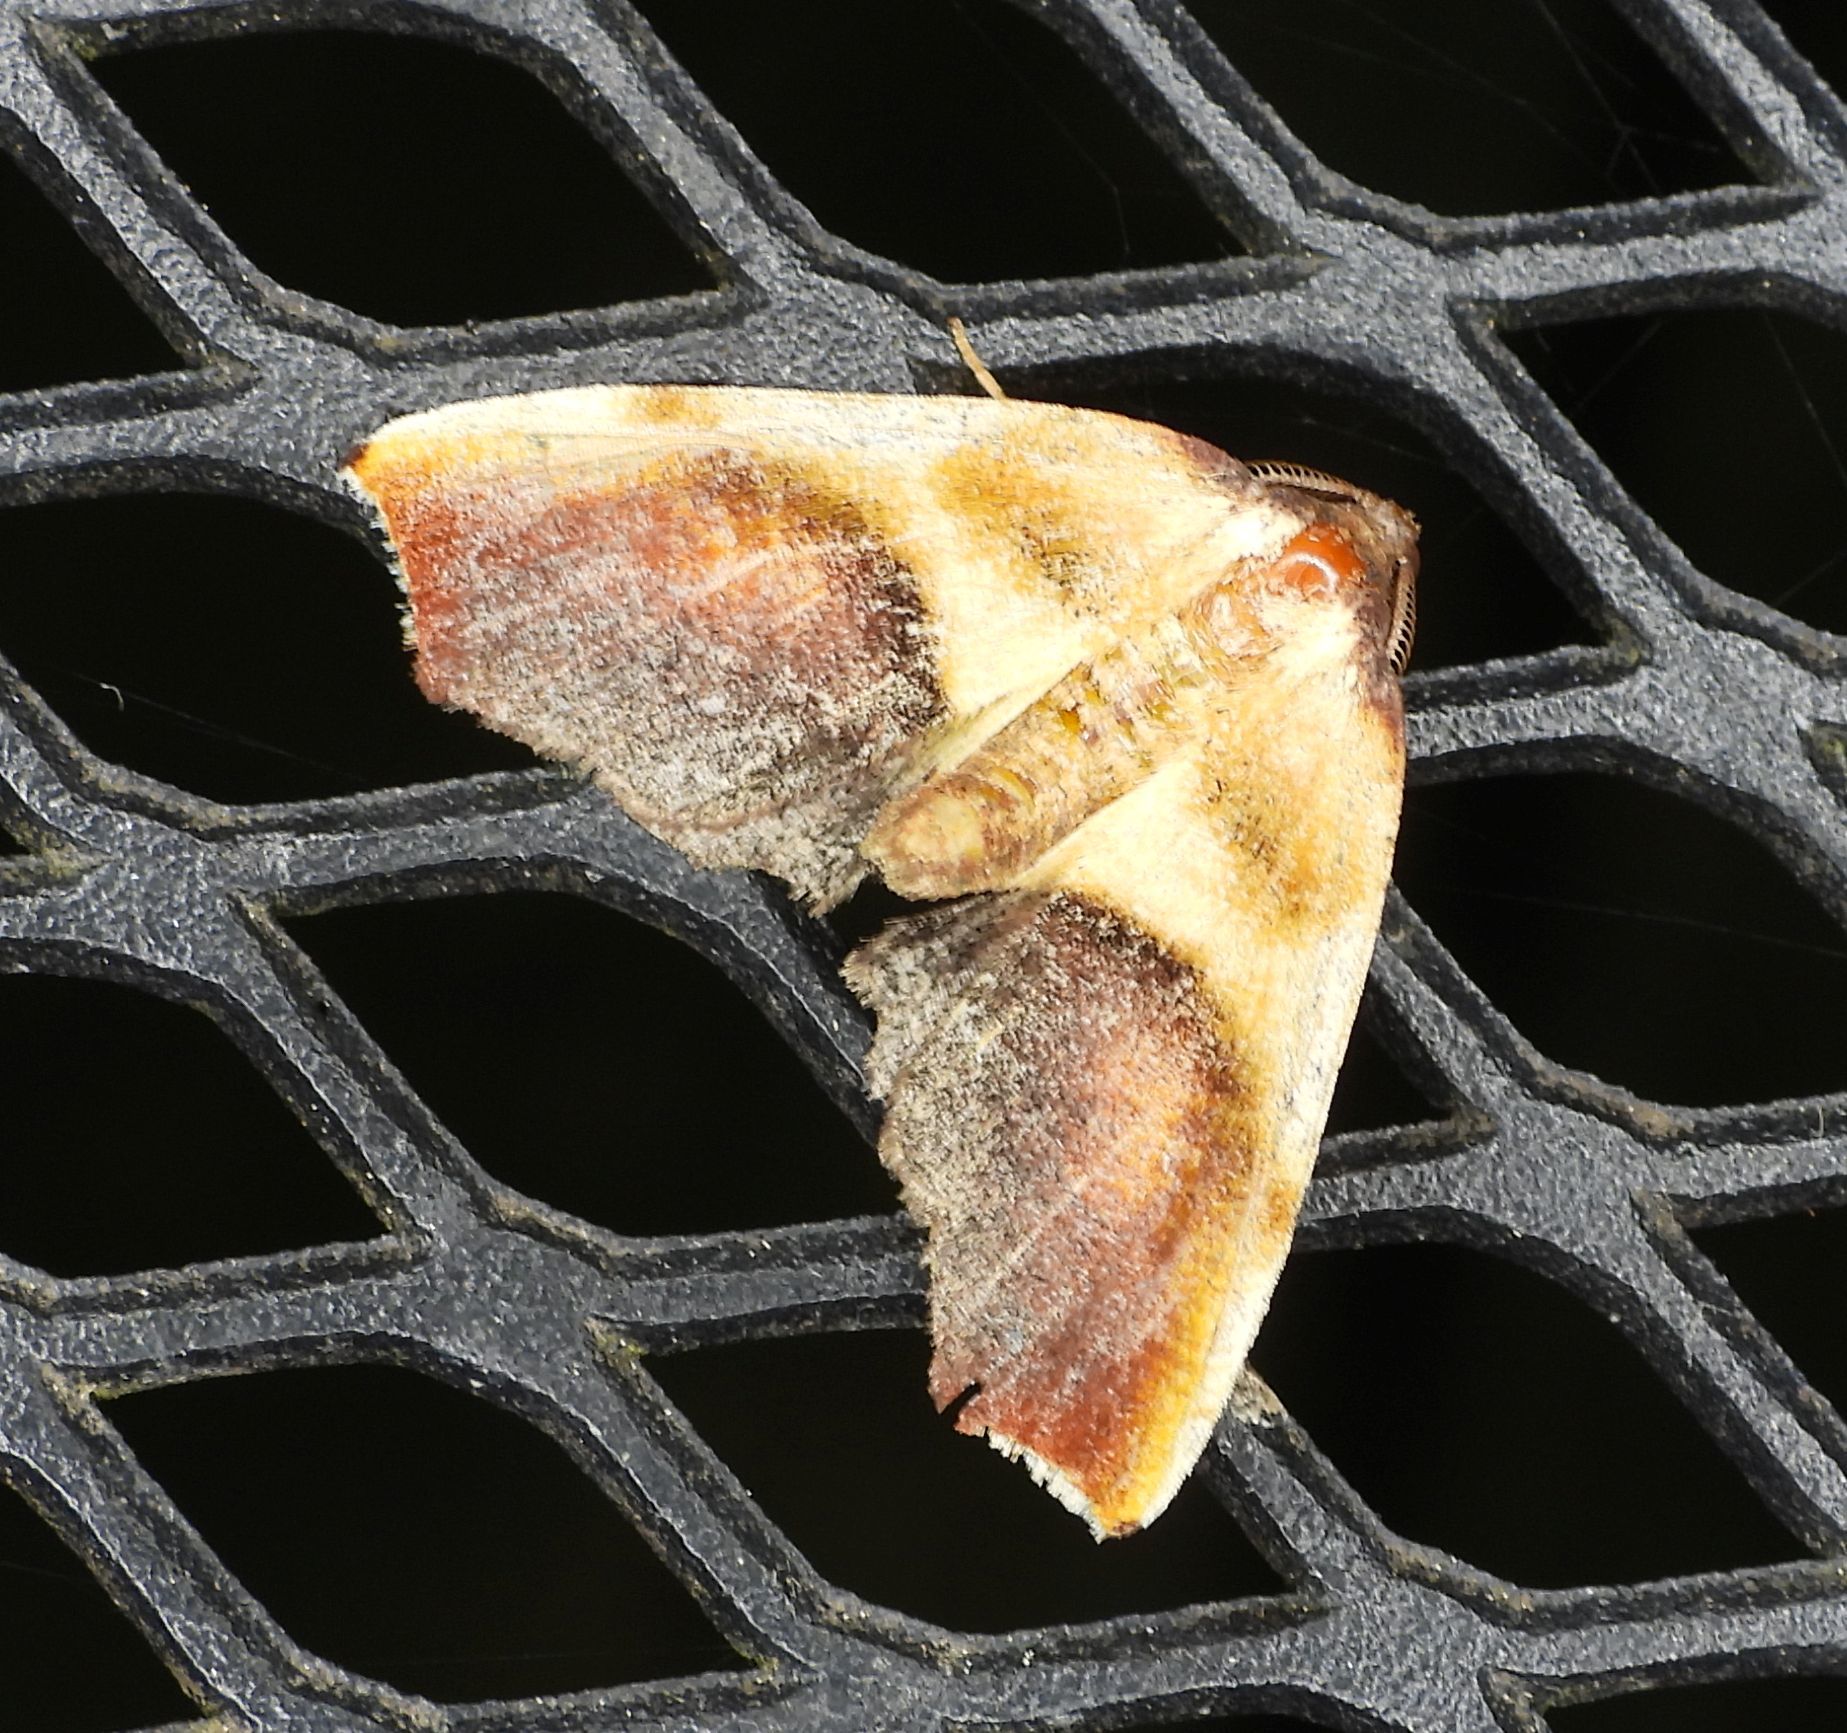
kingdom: Animalia
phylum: Arthropoda
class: Insecta
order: Lepidoptera
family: Geometridae
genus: Plagodis
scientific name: Plagodis kuetzingi
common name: Purple plagodis
